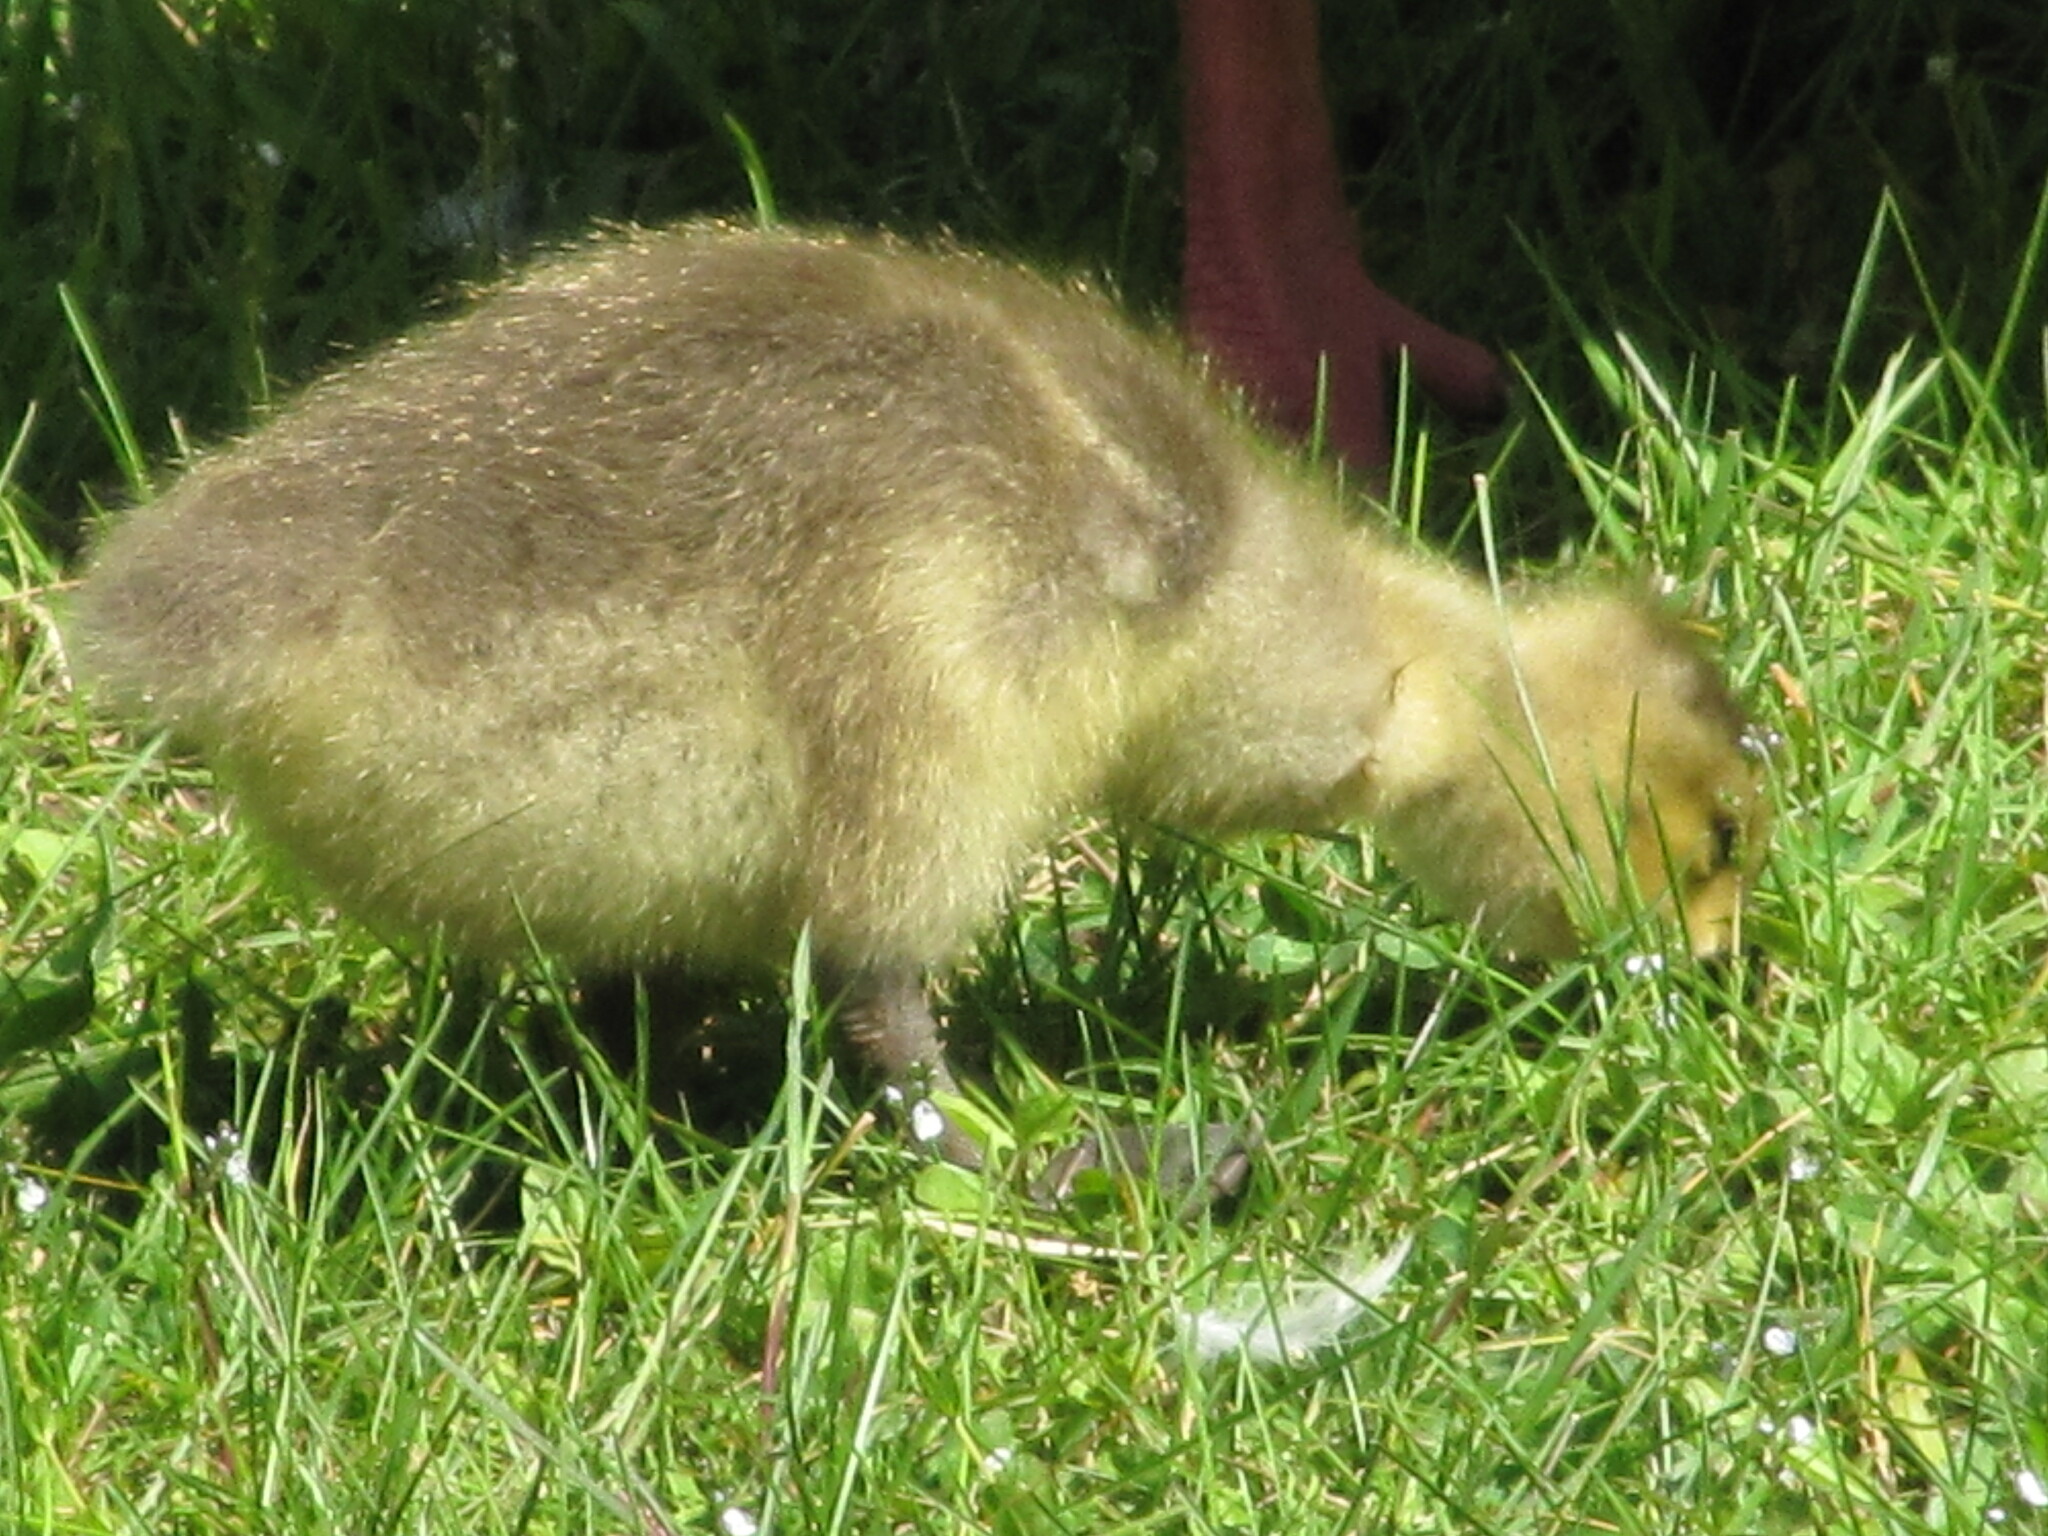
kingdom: Animalia
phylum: Chordata
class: Aves
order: Anseriformes
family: Anatidae
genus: Branta
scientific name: Branta canadensis
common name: Canada goose
